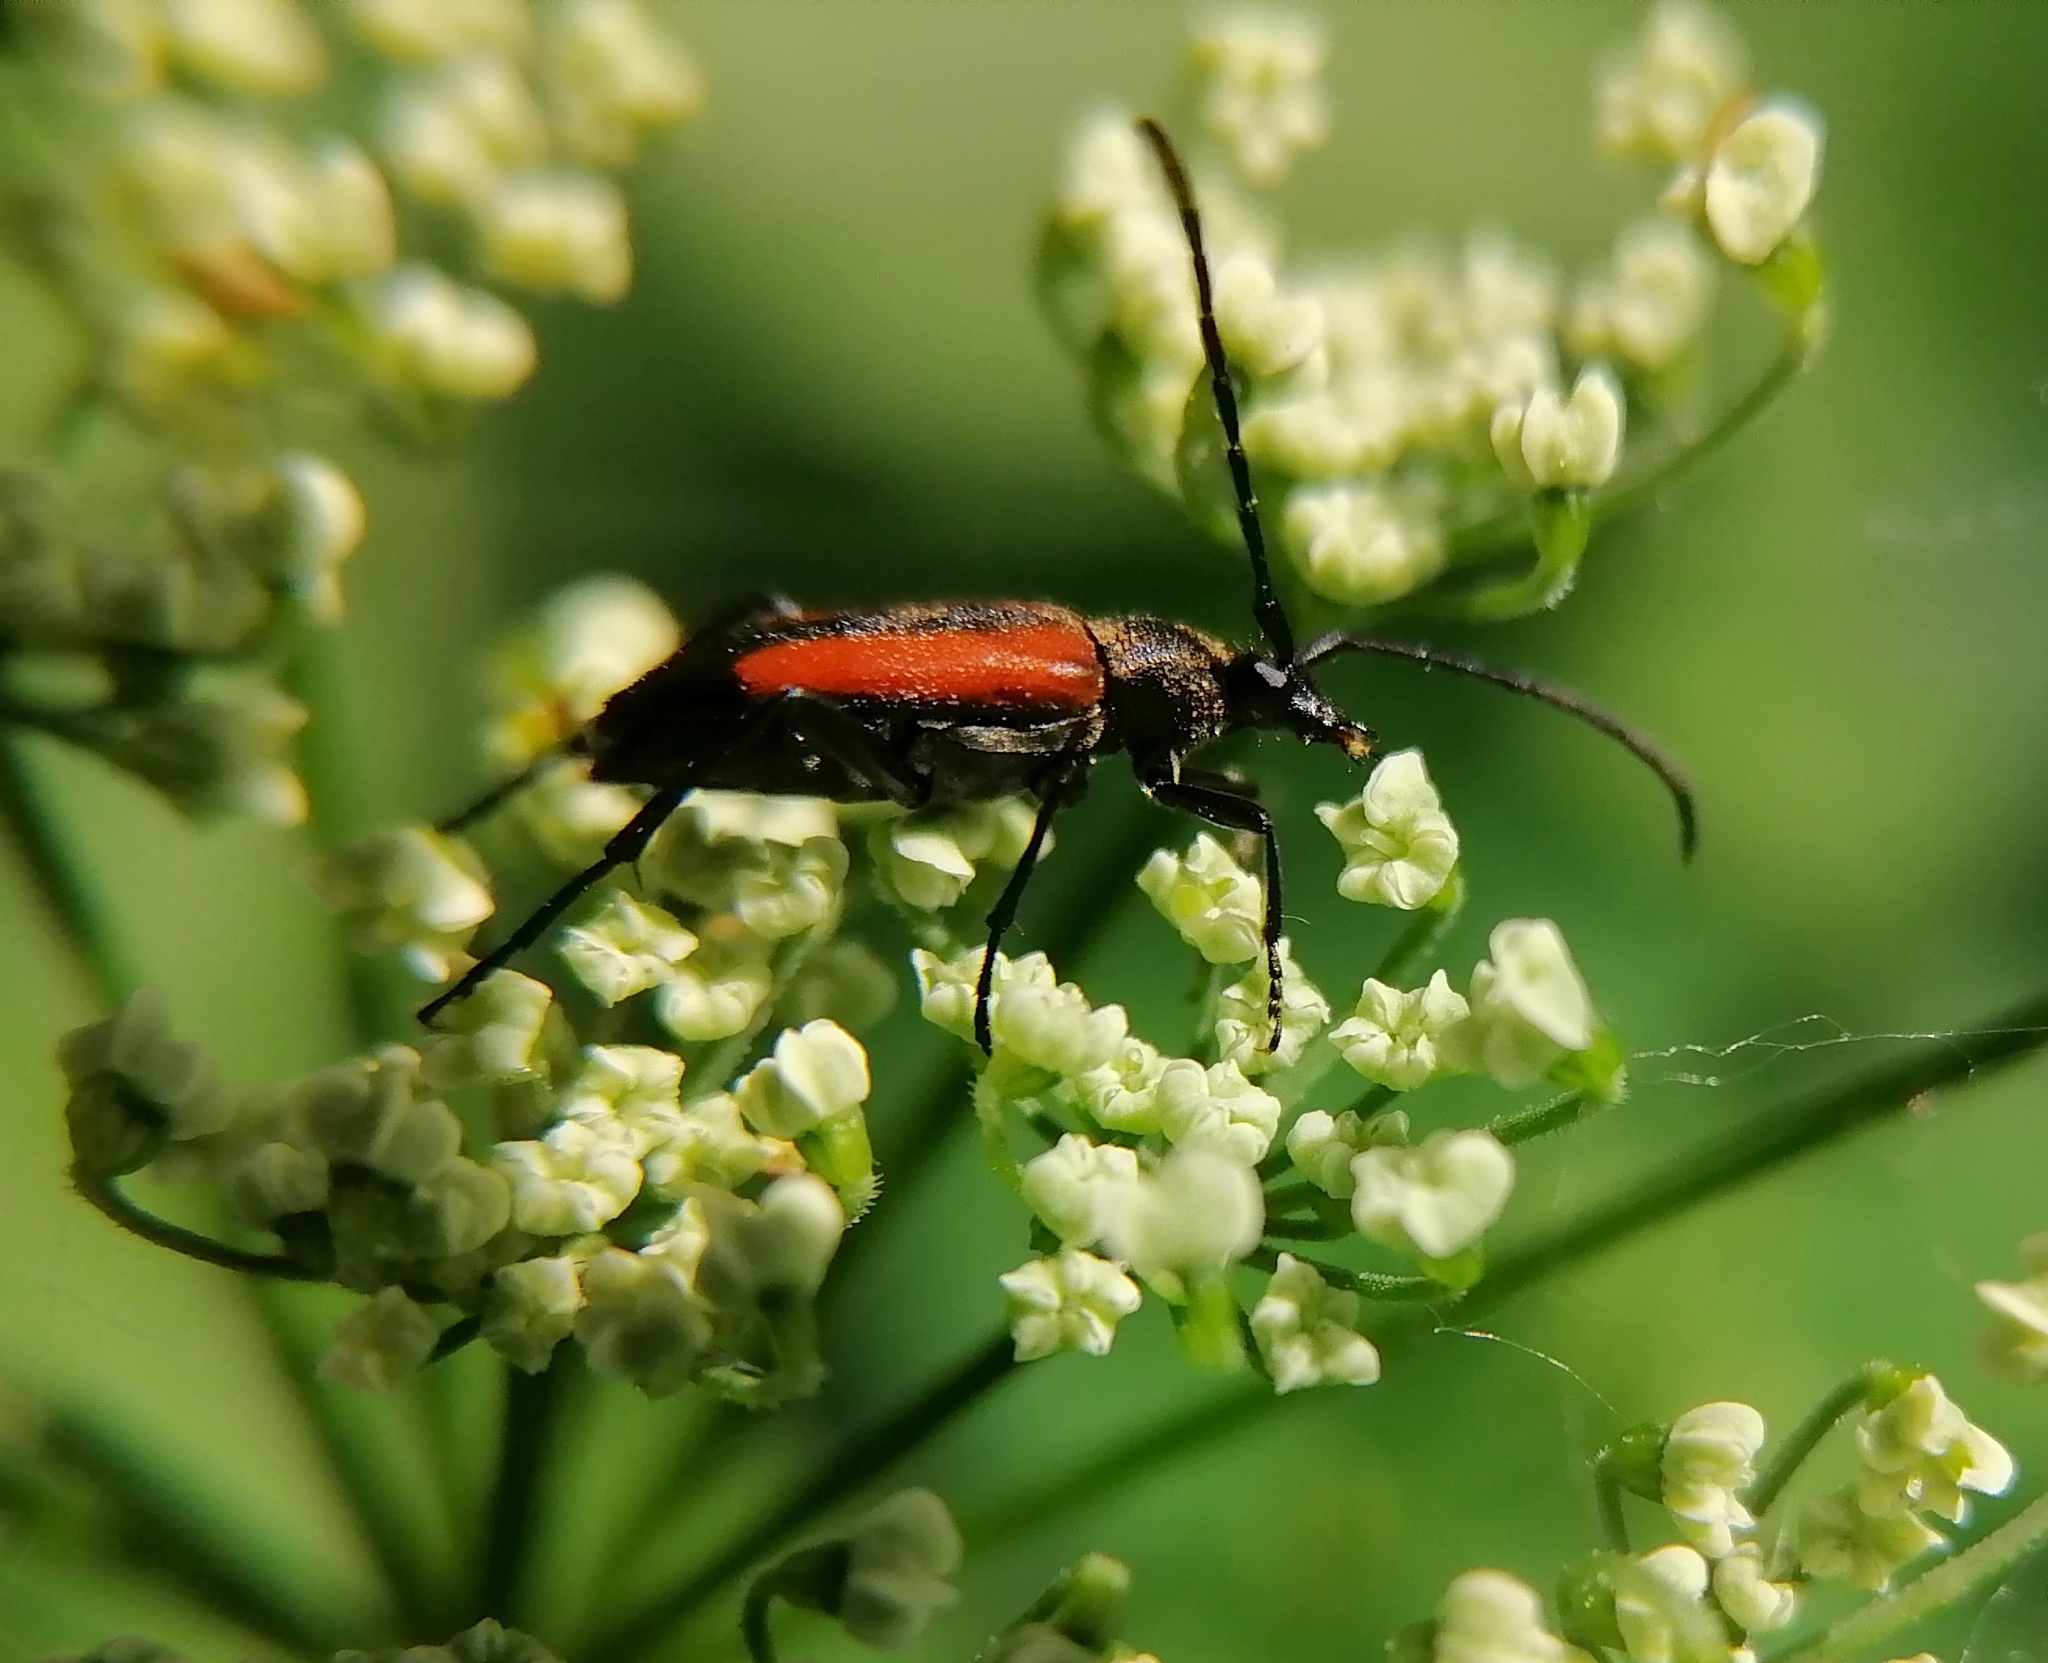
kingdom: Animalia
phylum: Arthropoda
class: Insecta
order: Coleoptera
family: Cerambycidae
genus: Stenurella
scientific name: Stenurella melanura
